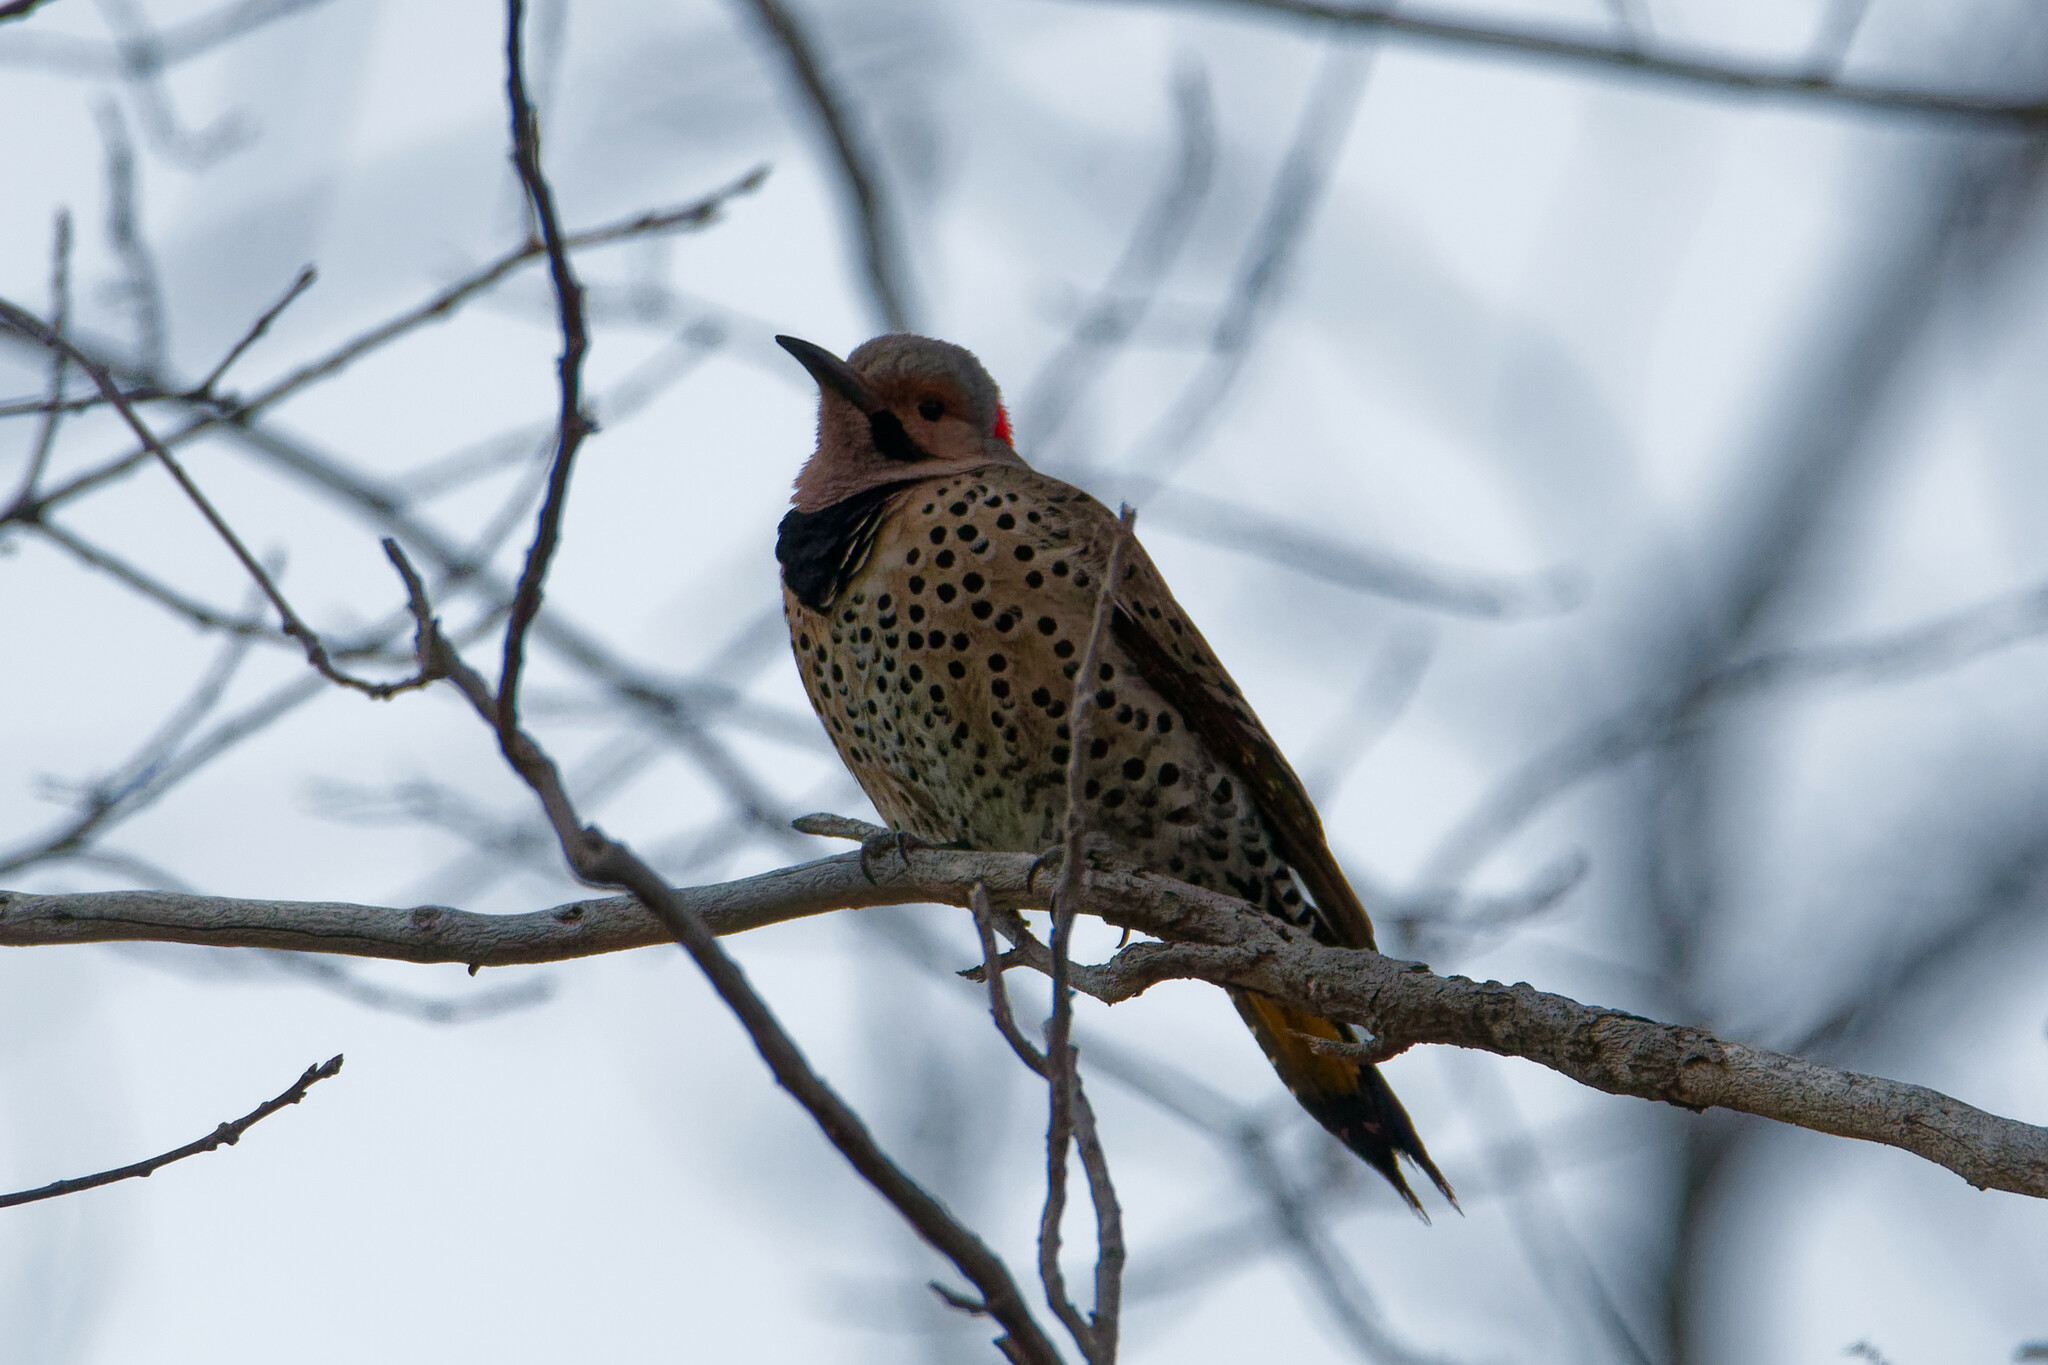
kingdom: Animalia
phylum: Chordata
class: Aves
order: Piciformes
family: Picidae
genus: Colaptes
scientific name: Colaptes auratus
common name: Northern flicker
